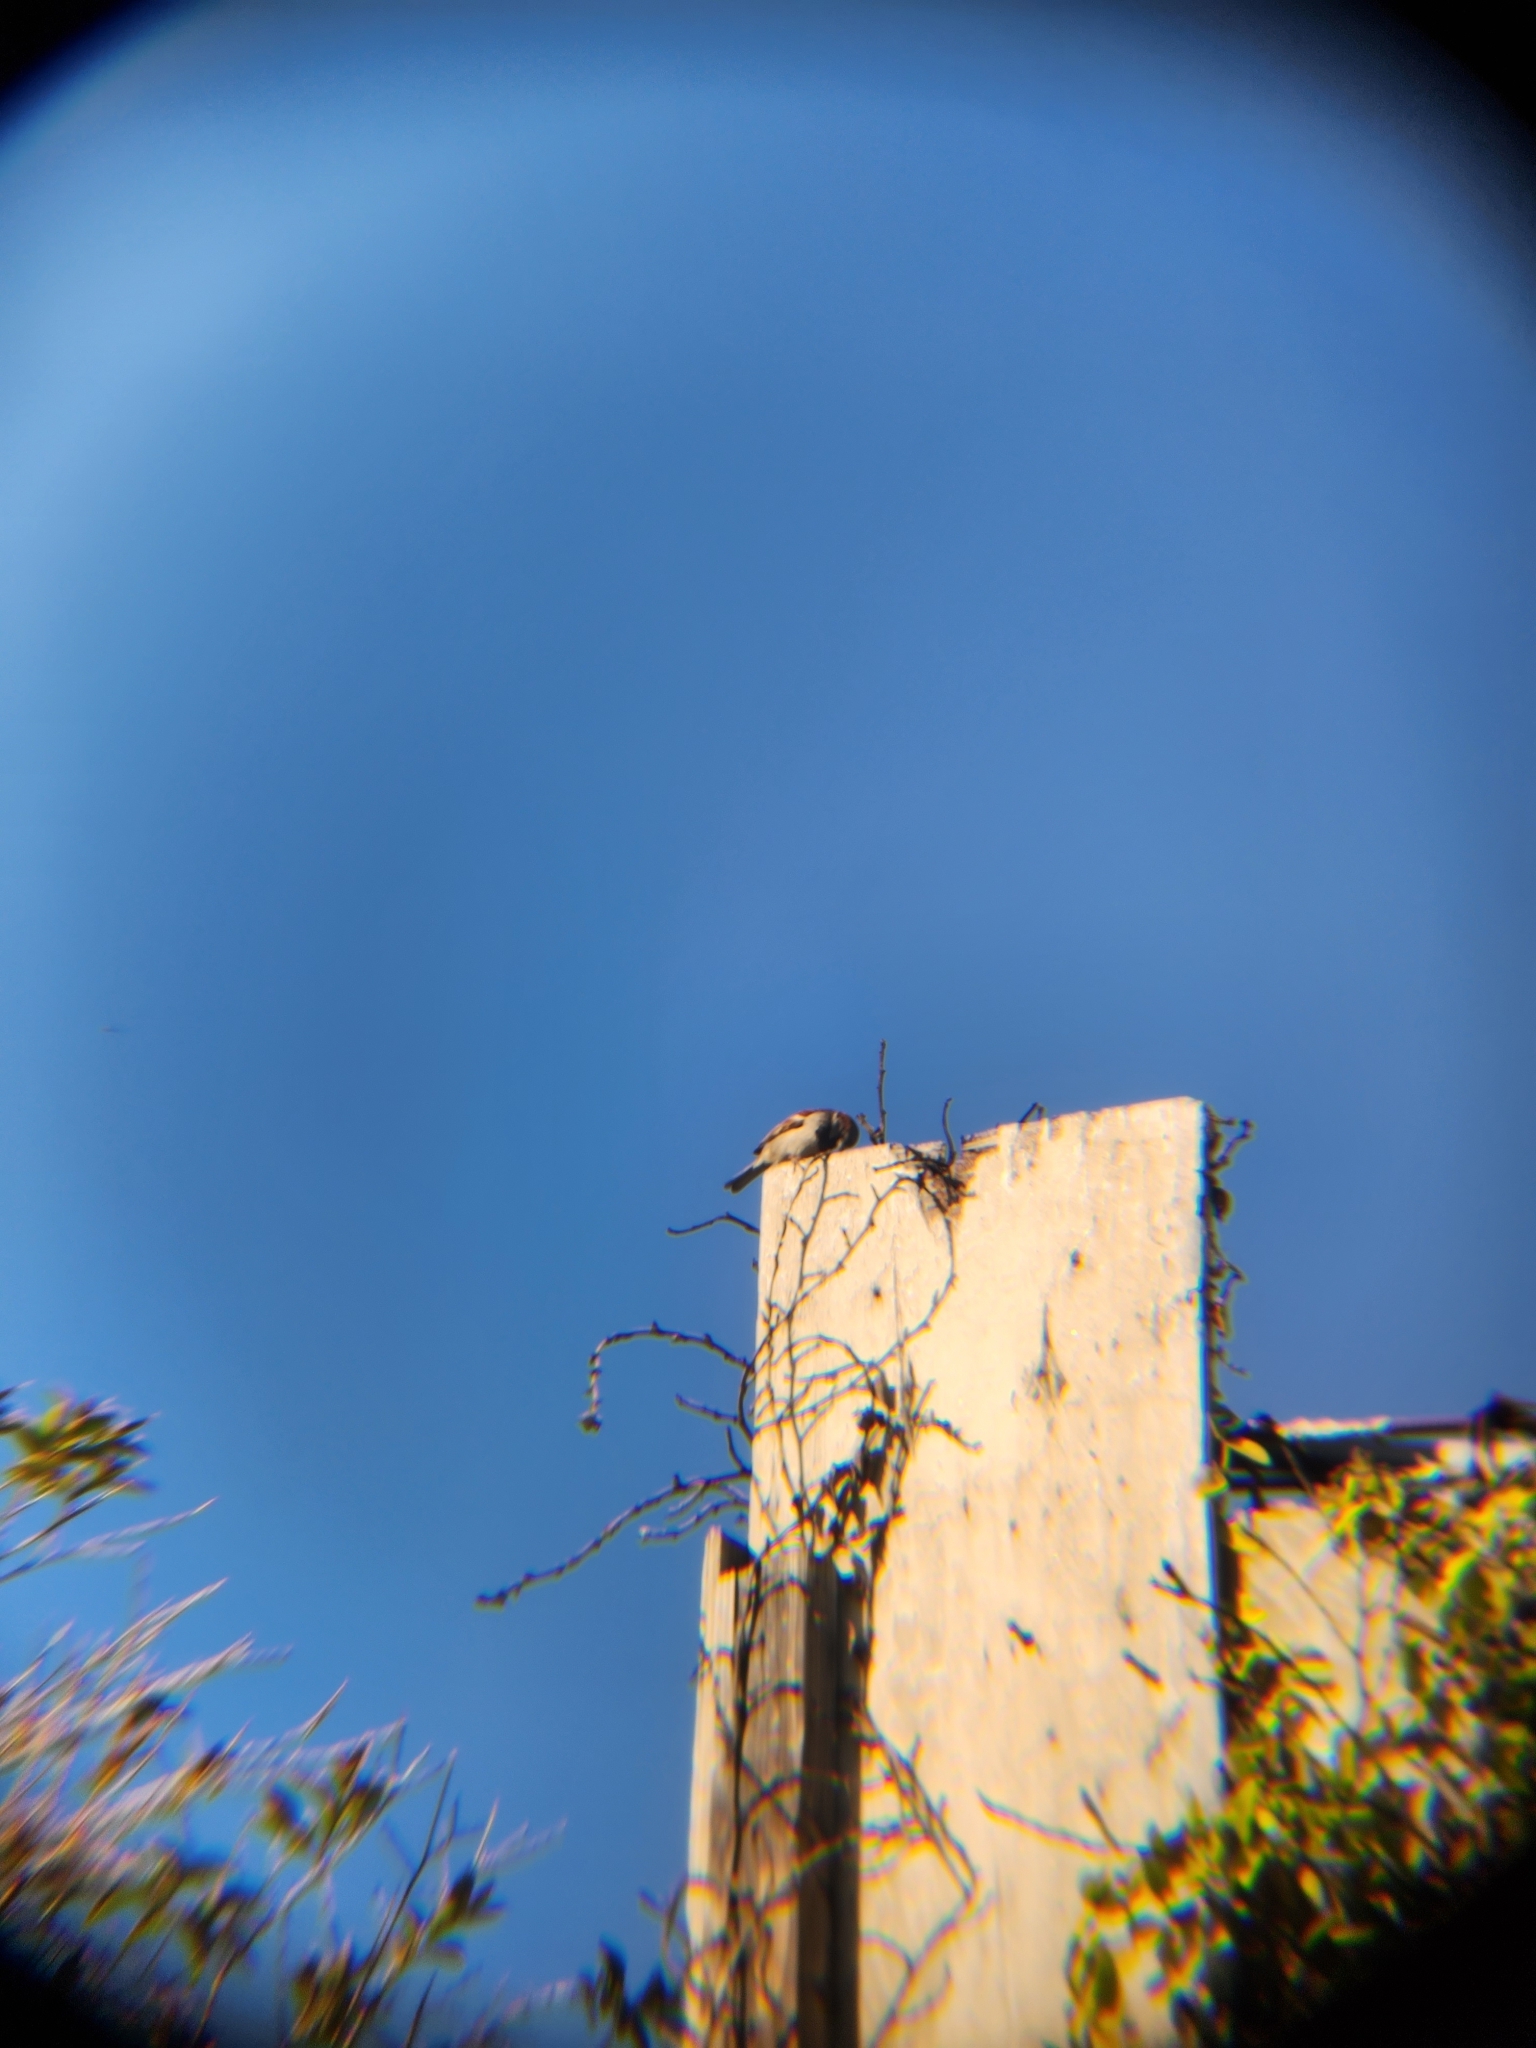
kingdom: Animalia
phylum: Chordata
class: Aves
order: Passeriformes
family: Passeridae
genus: Passer
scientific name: Passer domesticus
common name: House sparrow
